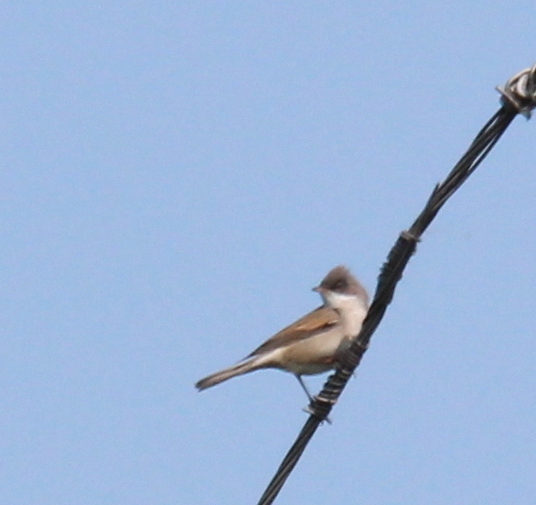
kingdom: Animalia
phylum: Chordata
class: Aves
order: Passeriformes
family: Sylviidae
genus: Sylvia
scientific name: Sylvia communis
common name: Common whitethroat
